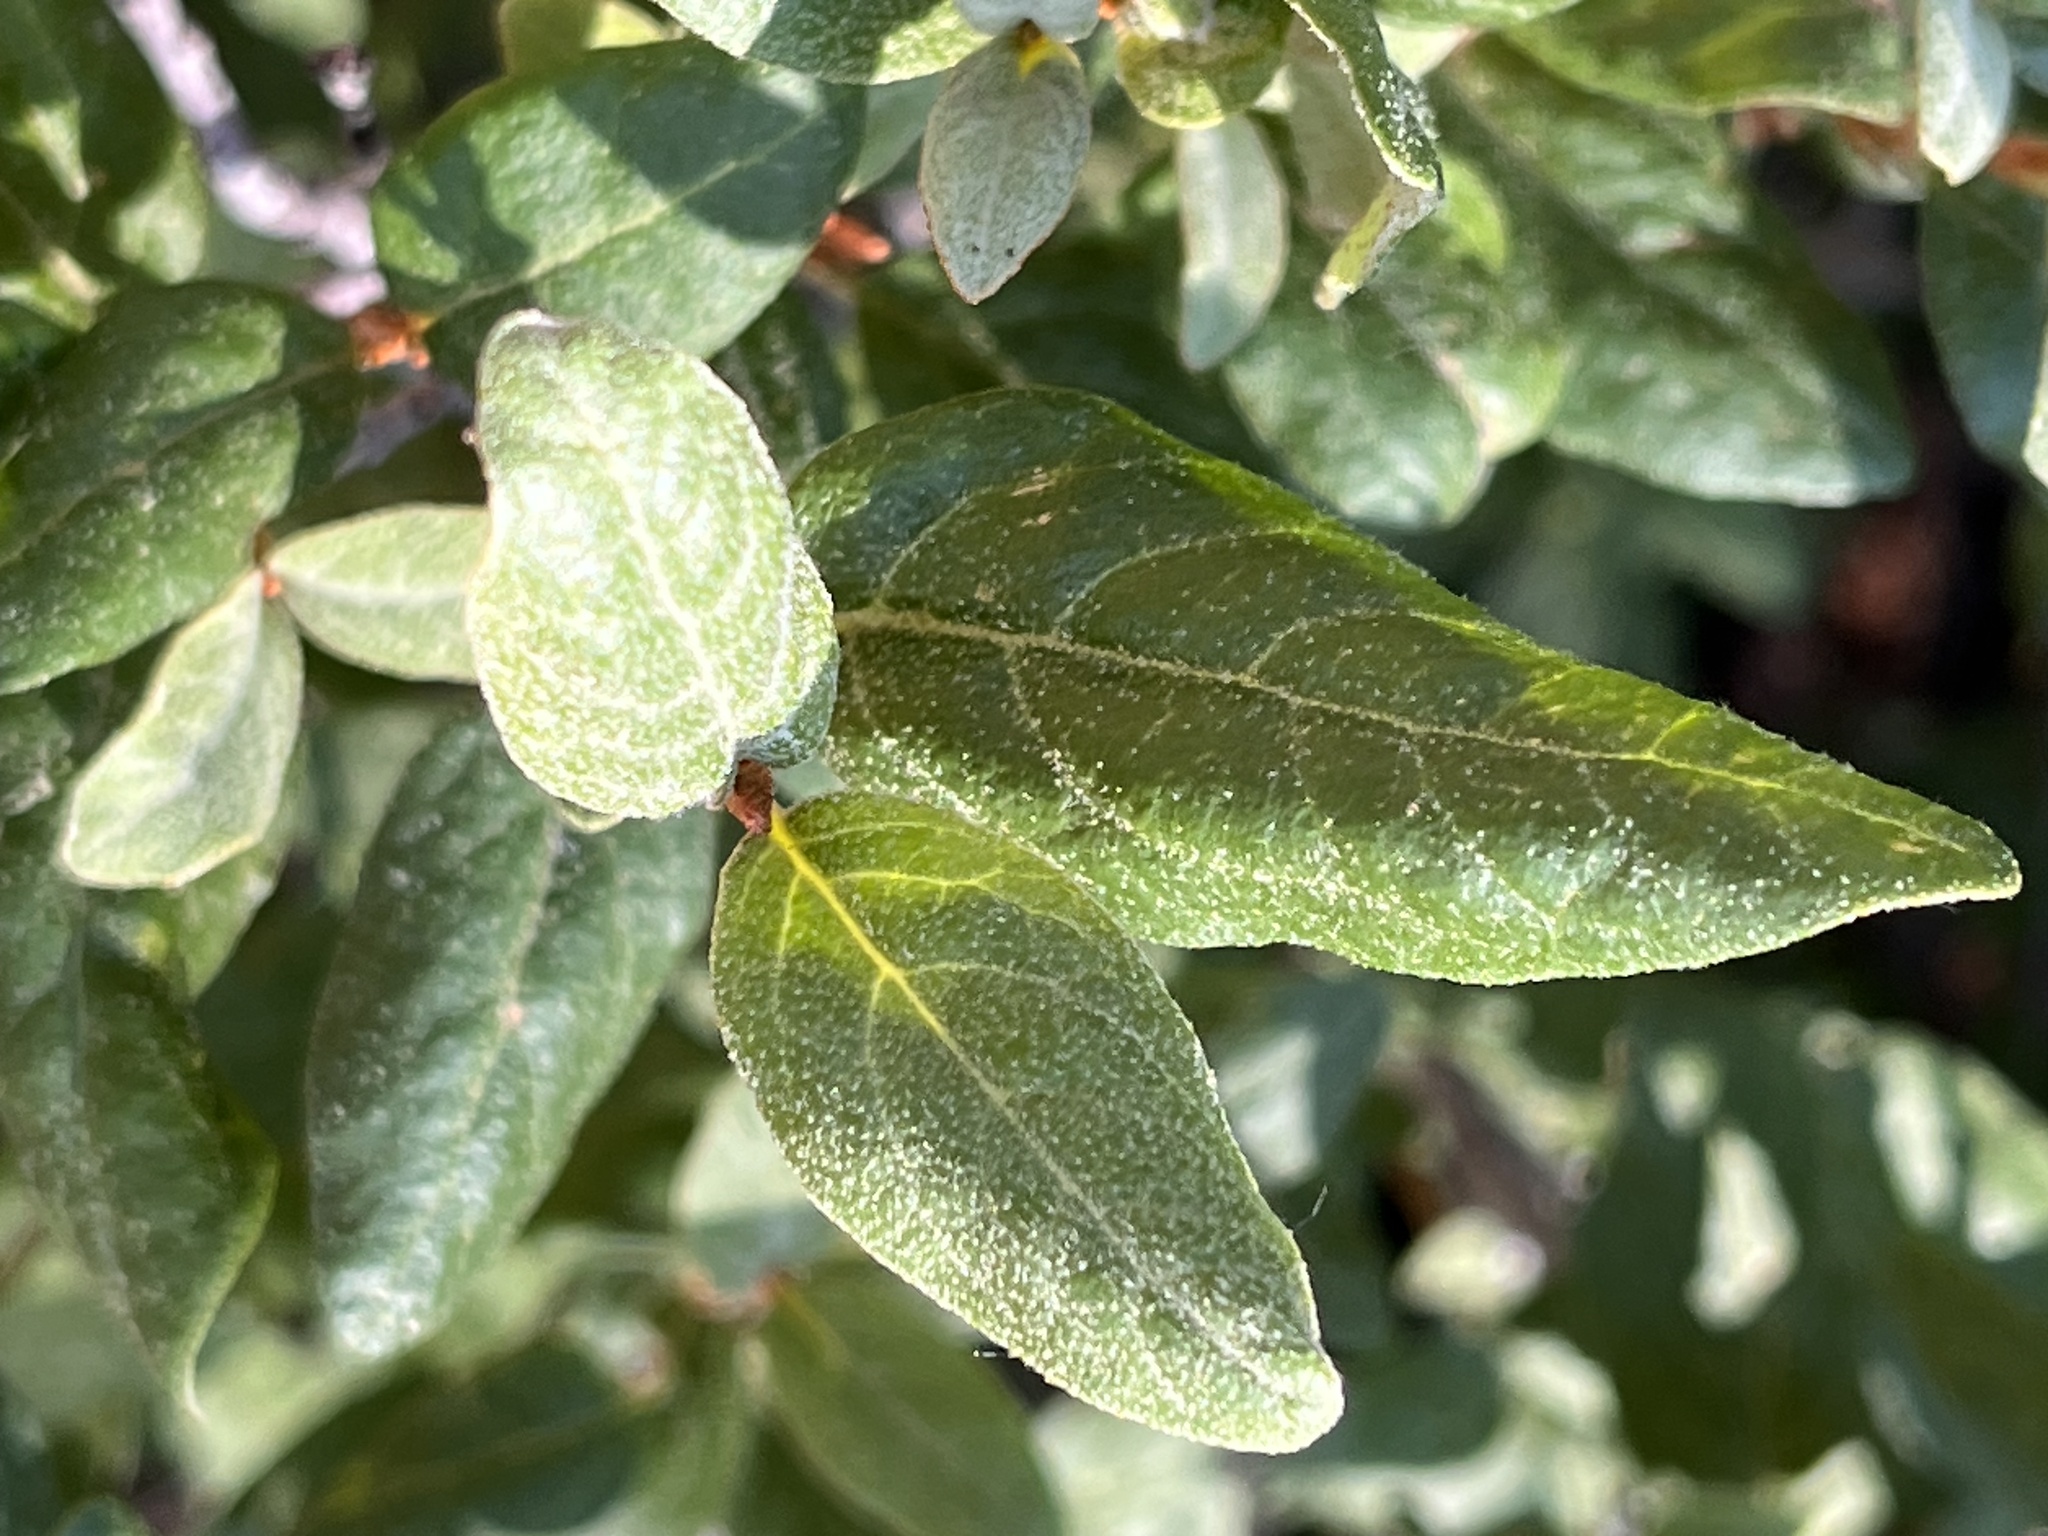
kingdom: Plantae
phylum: Tracheophyta
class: Magnoliopsida
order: Rosales
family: Elaeagnaceae
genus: Shepherdia
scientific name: Shepherdia canadensis
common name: Soapberry
